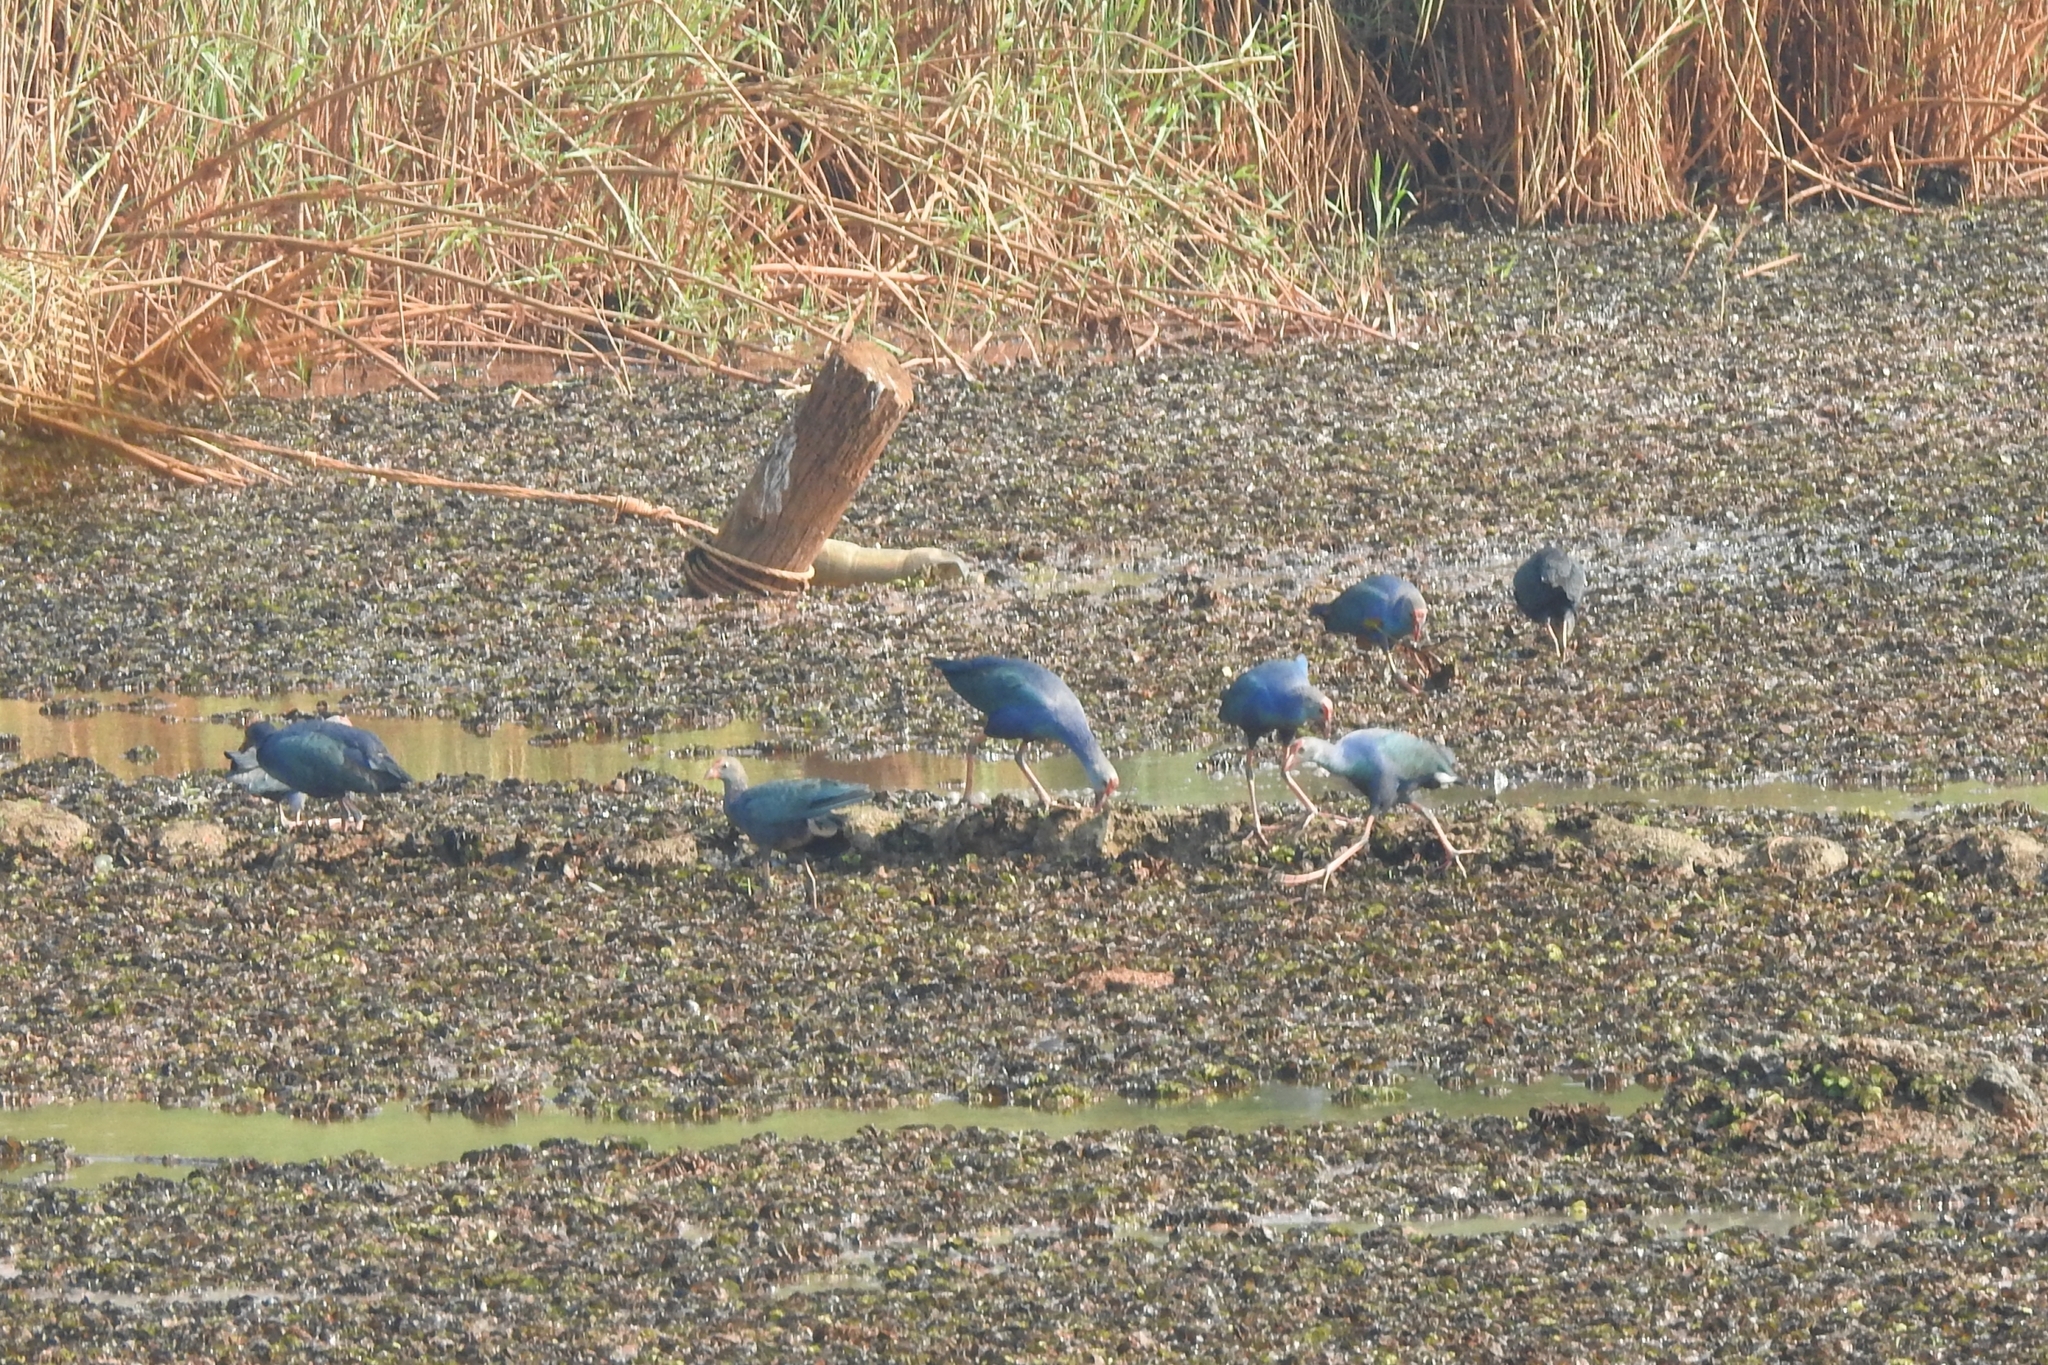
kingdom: Animalia
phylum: Chordata
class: Aves
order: Gruiformes
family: Rallidae
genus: Porphyrio
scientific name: Porphyrio porphyrio
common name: Purple swamphen
